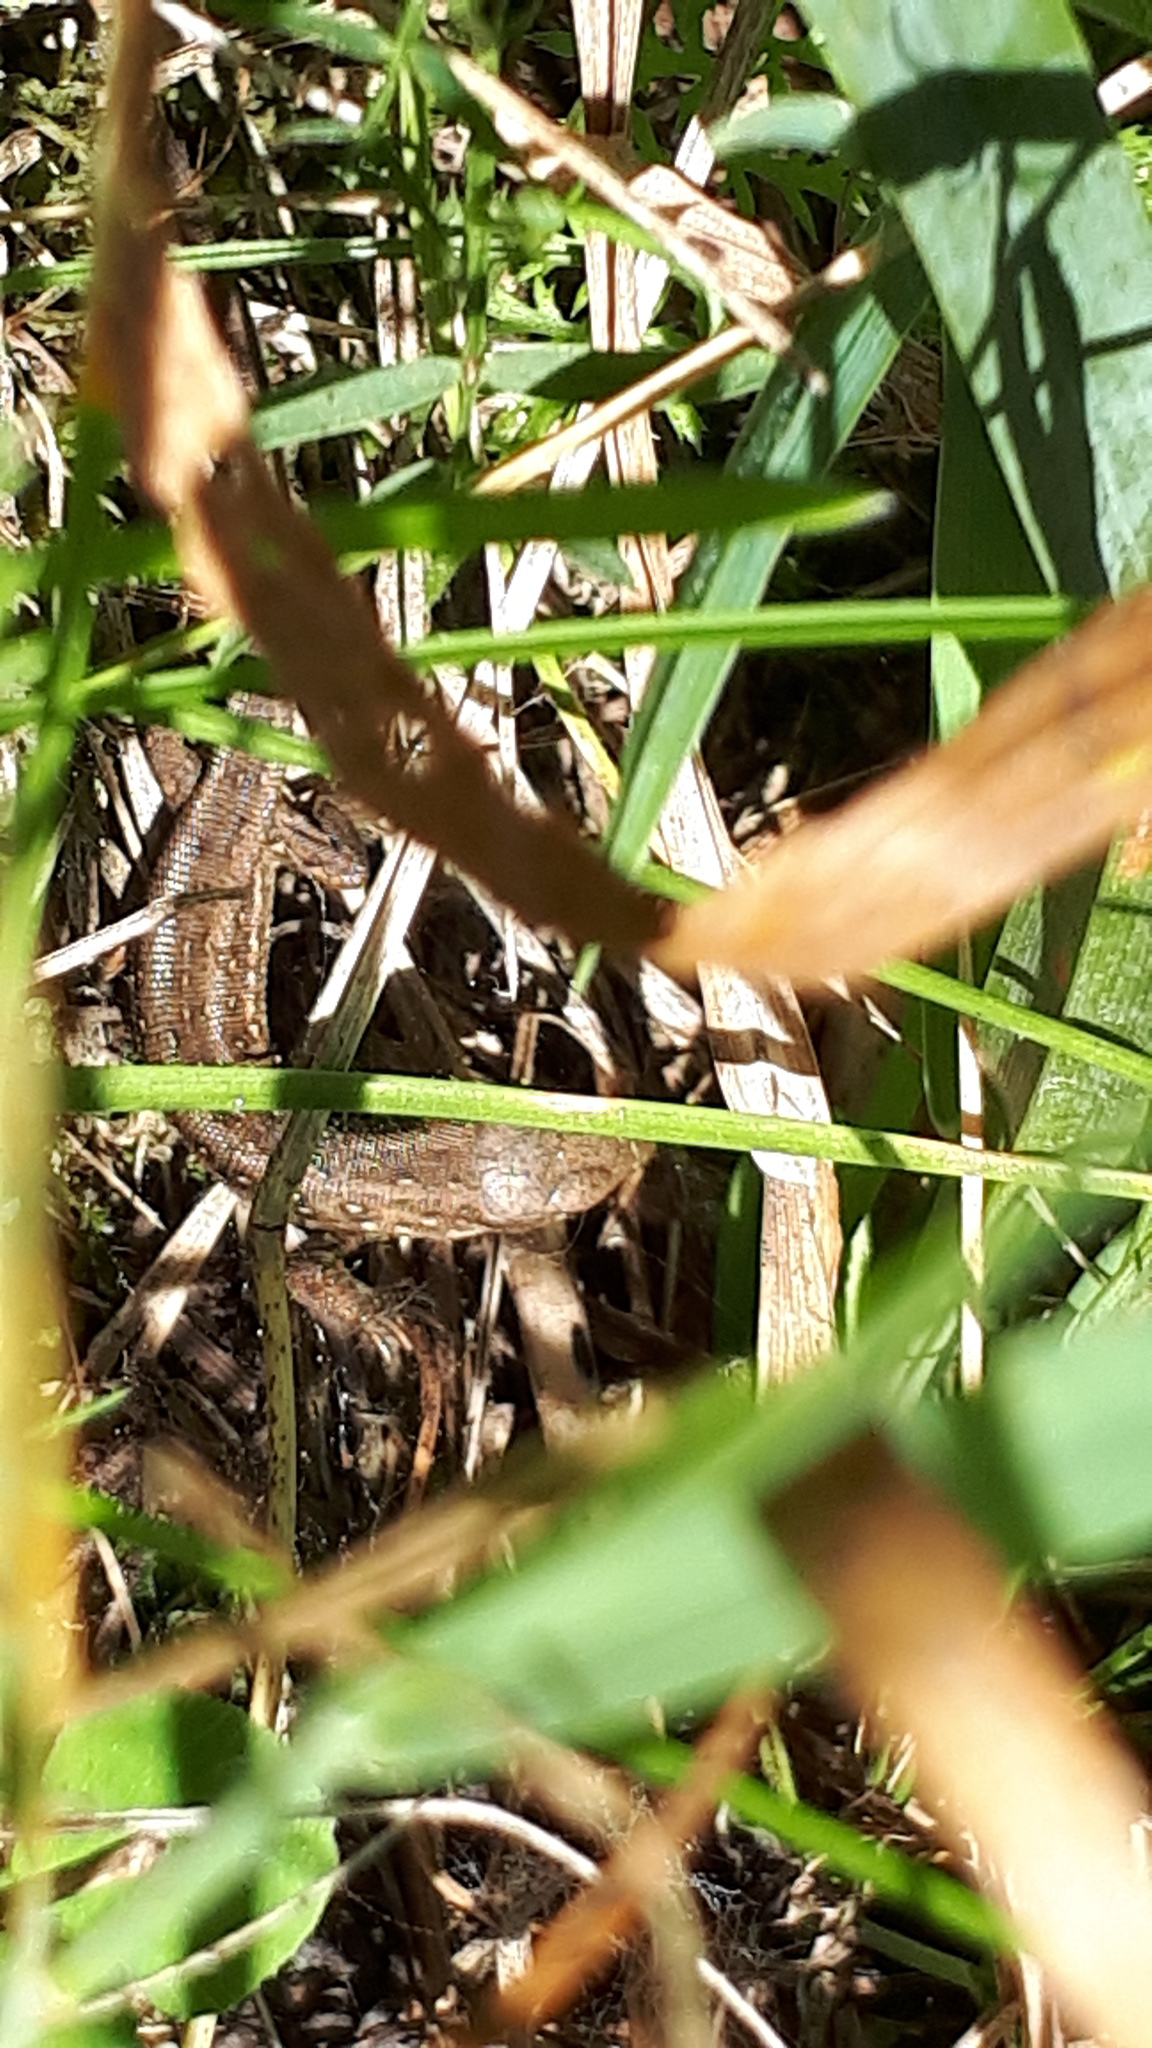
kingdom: Animalia
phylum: Chordata
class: Squamata
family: Lacertidae
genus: Lacerta
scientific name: Lacerta agilis
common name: Sand lizard
